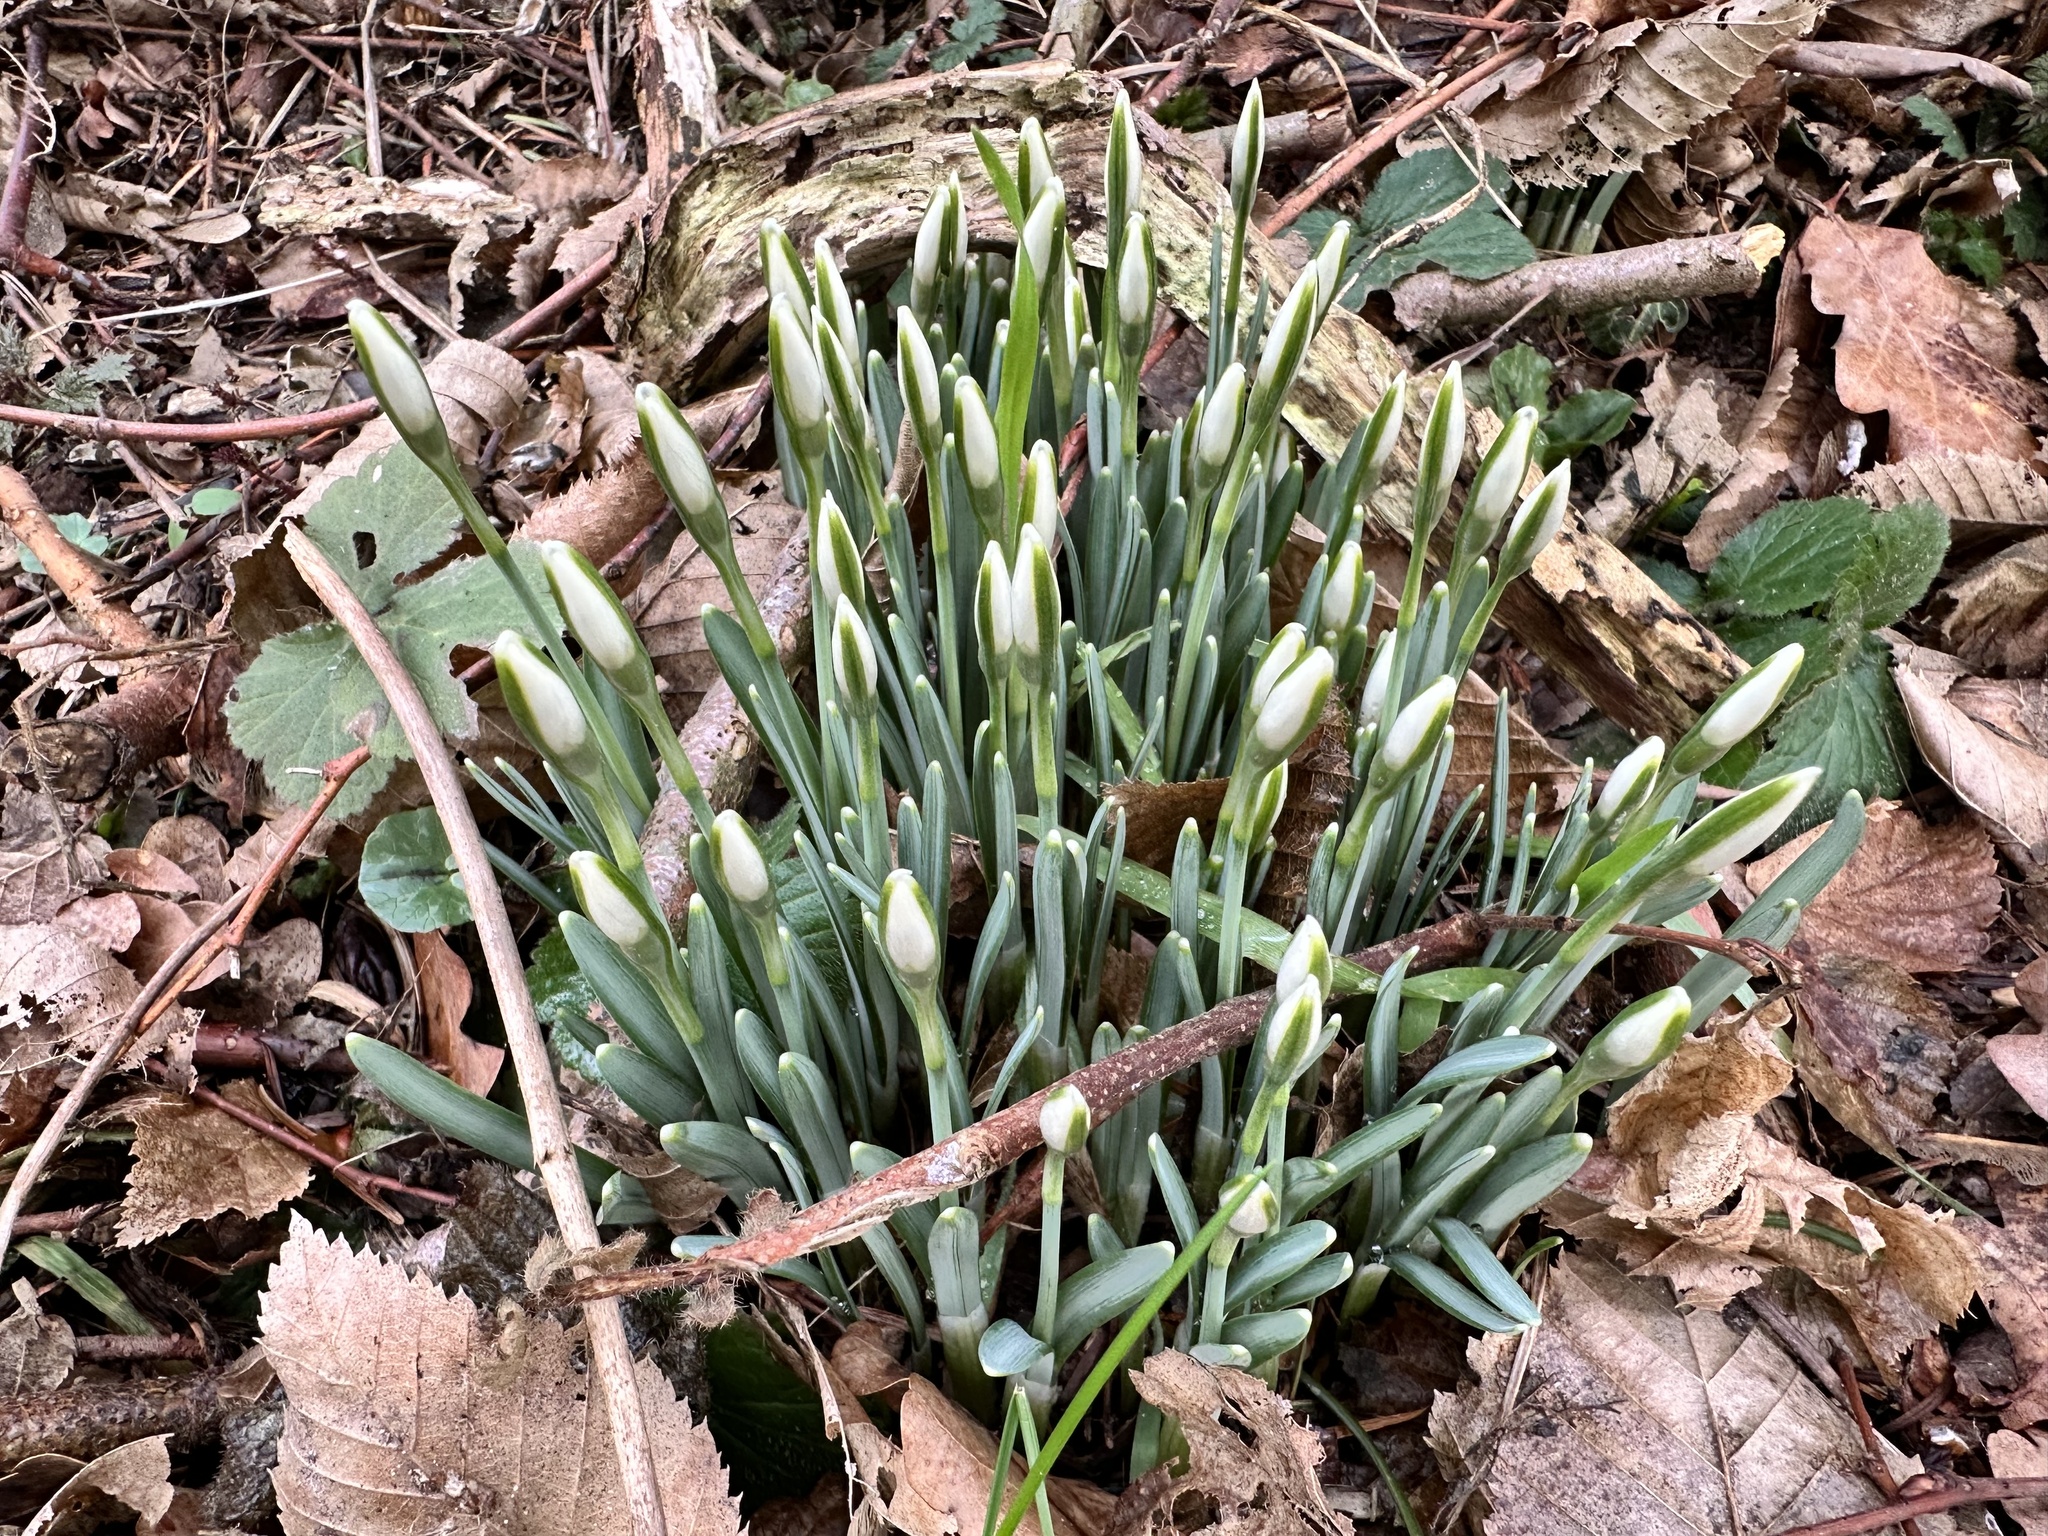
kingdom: Plantae
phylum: Tracheophyta
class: Liliopsida
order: Asparagales
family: Amaryllidaceae
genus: Galanthus
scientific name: Galanthus nivalis
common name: Snowdrop
